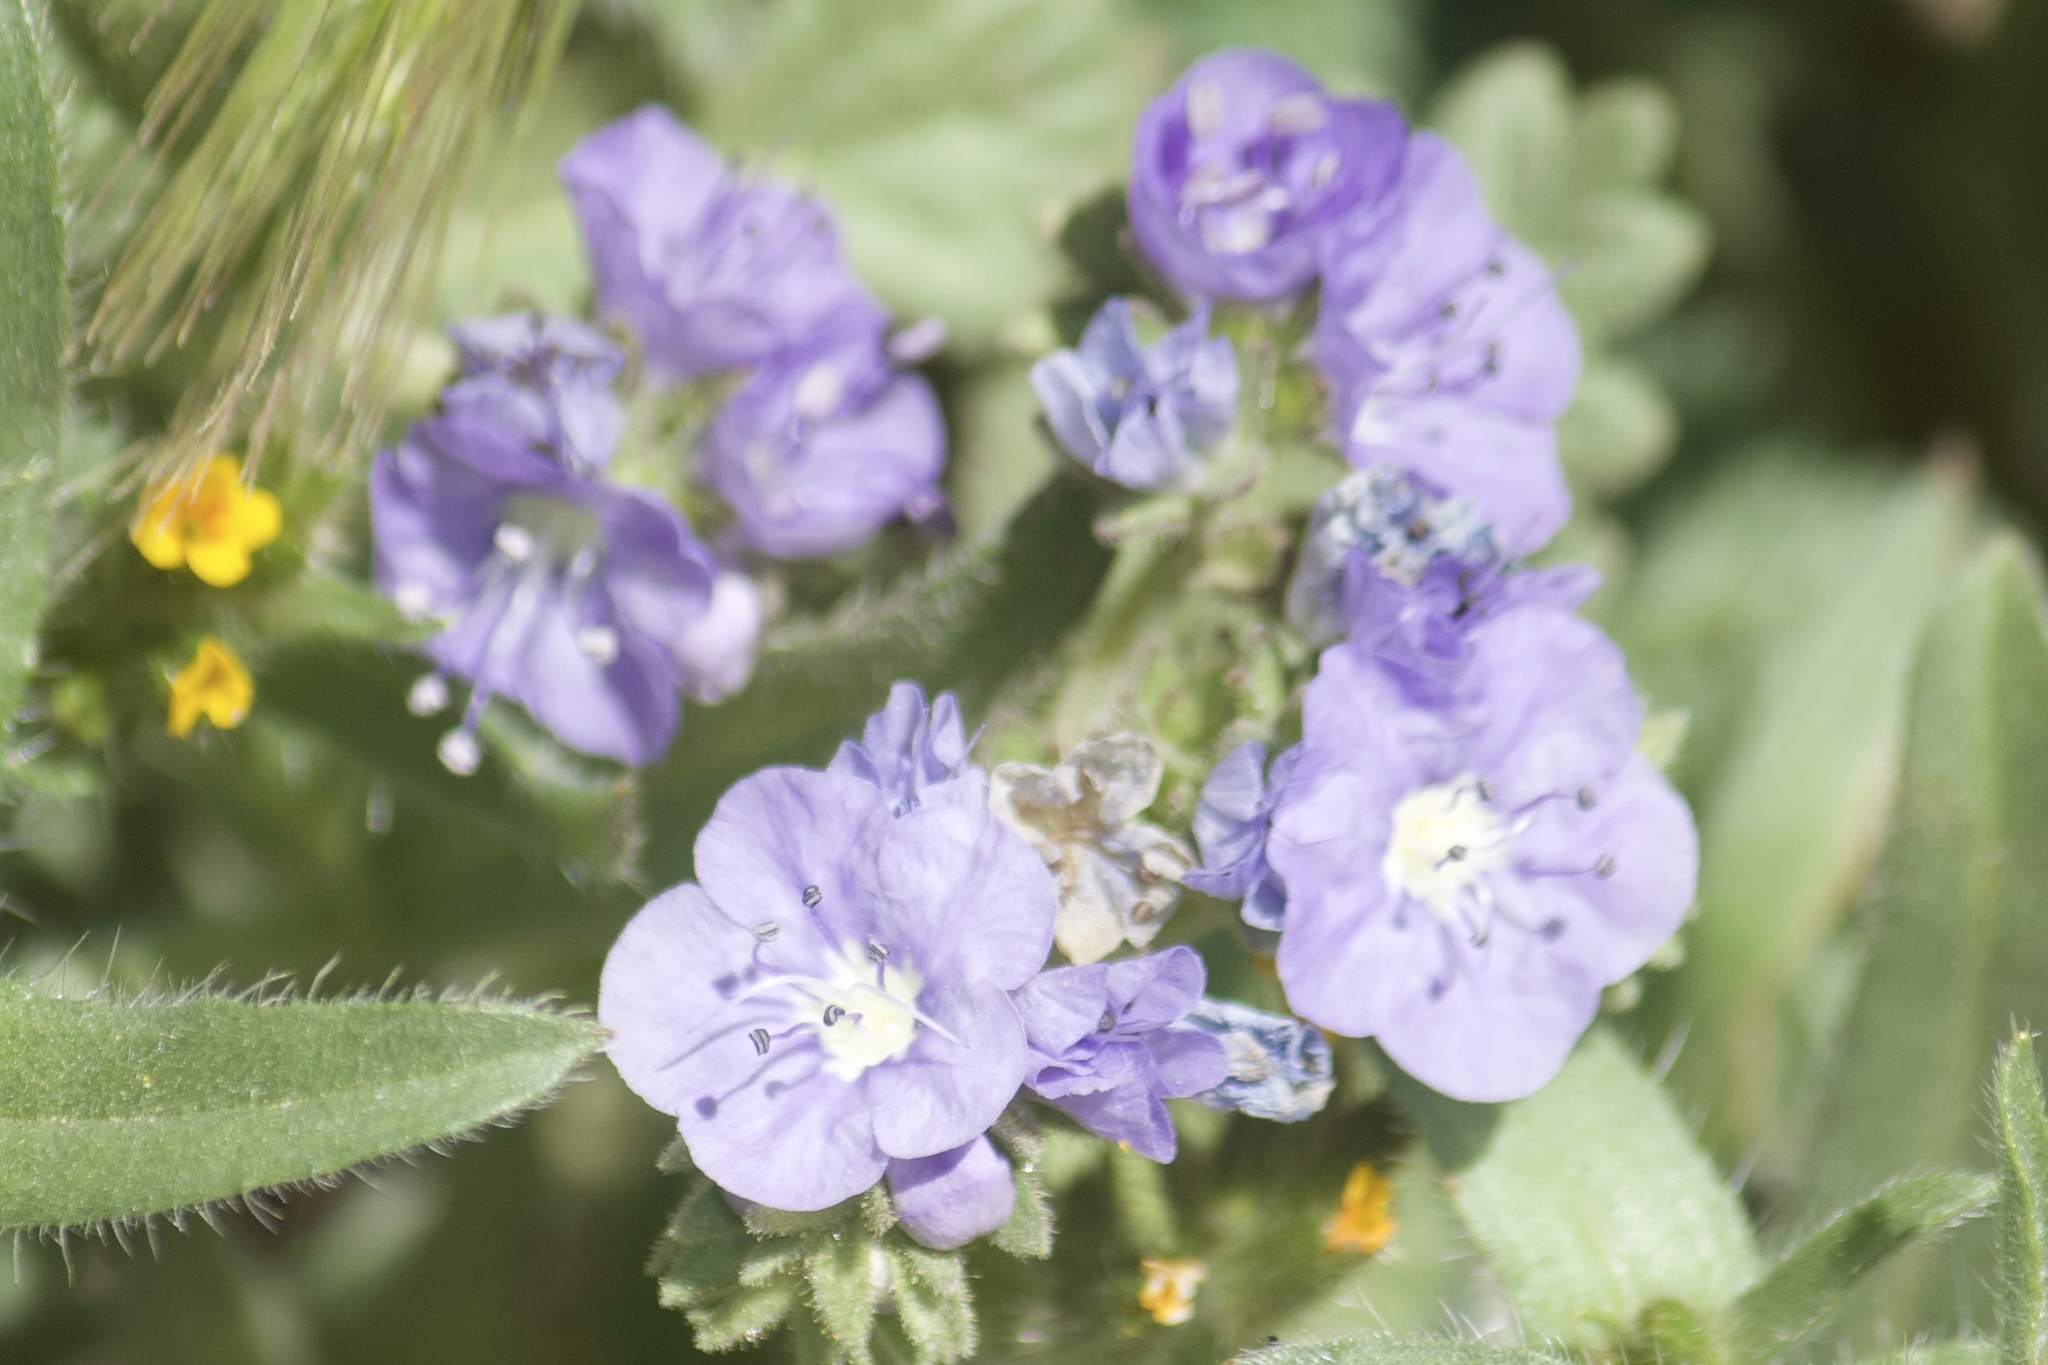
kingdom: Plantae
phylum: Tracheophyta
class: Magnoliopsida
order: Boraginales
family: Hydrophyllaceae
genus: Phacelia
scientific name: Phacelia ciliata
